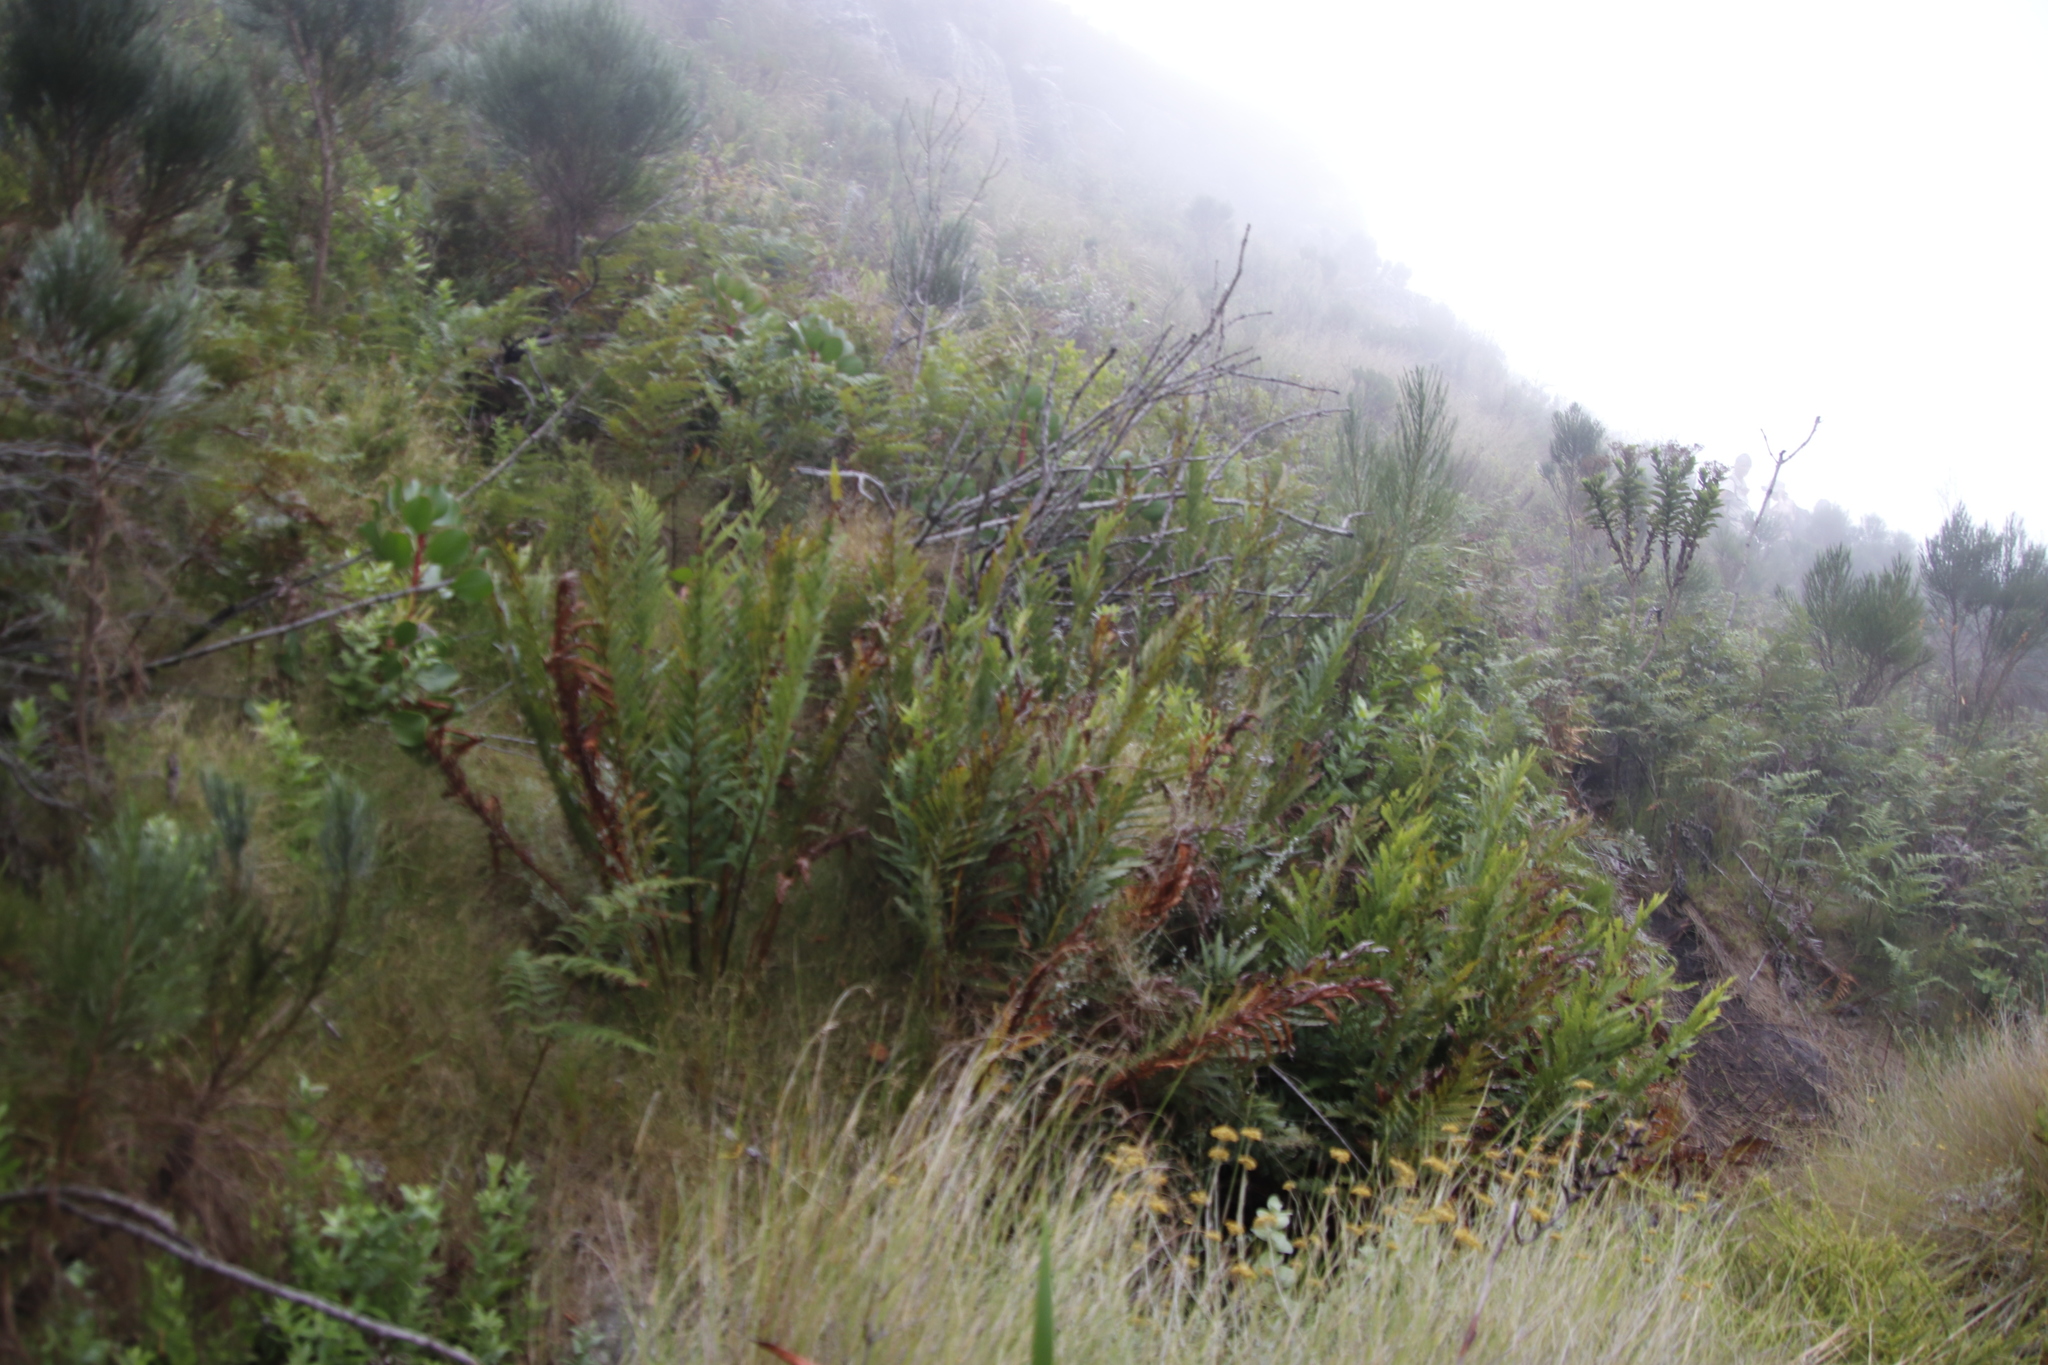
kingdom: Plantae
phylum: Tracheophyta
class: Polypodiopsida
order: Osmundales
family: Osmundaceae
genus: Todea
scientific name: Todea barbara
